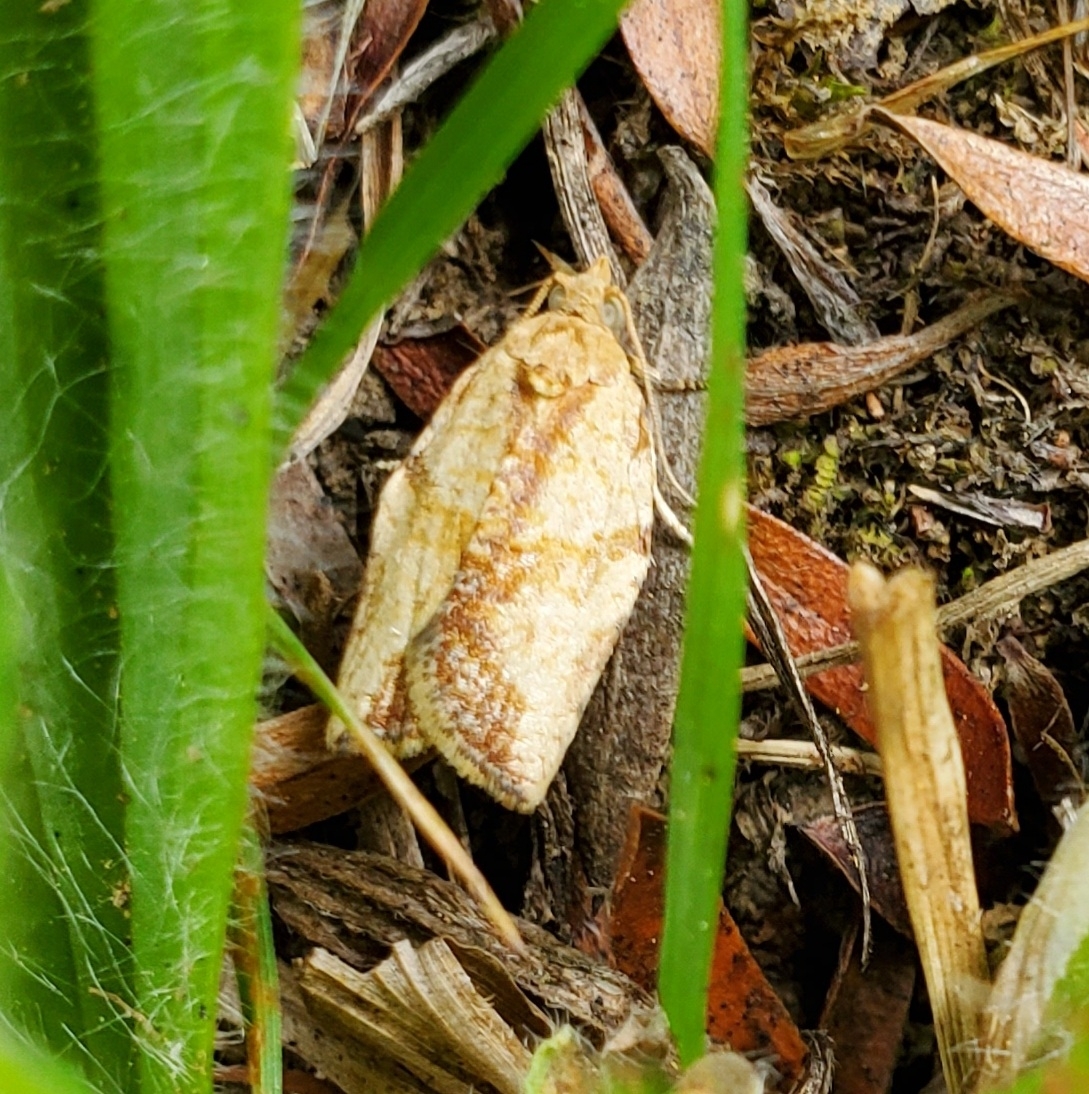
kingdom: Animalia
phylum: Arthropoda
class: Insecta
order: Lepidoptera
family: Tortricidae
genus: Epiphyas
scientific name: Epiphyas postvittana
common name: Light brown apple moth
